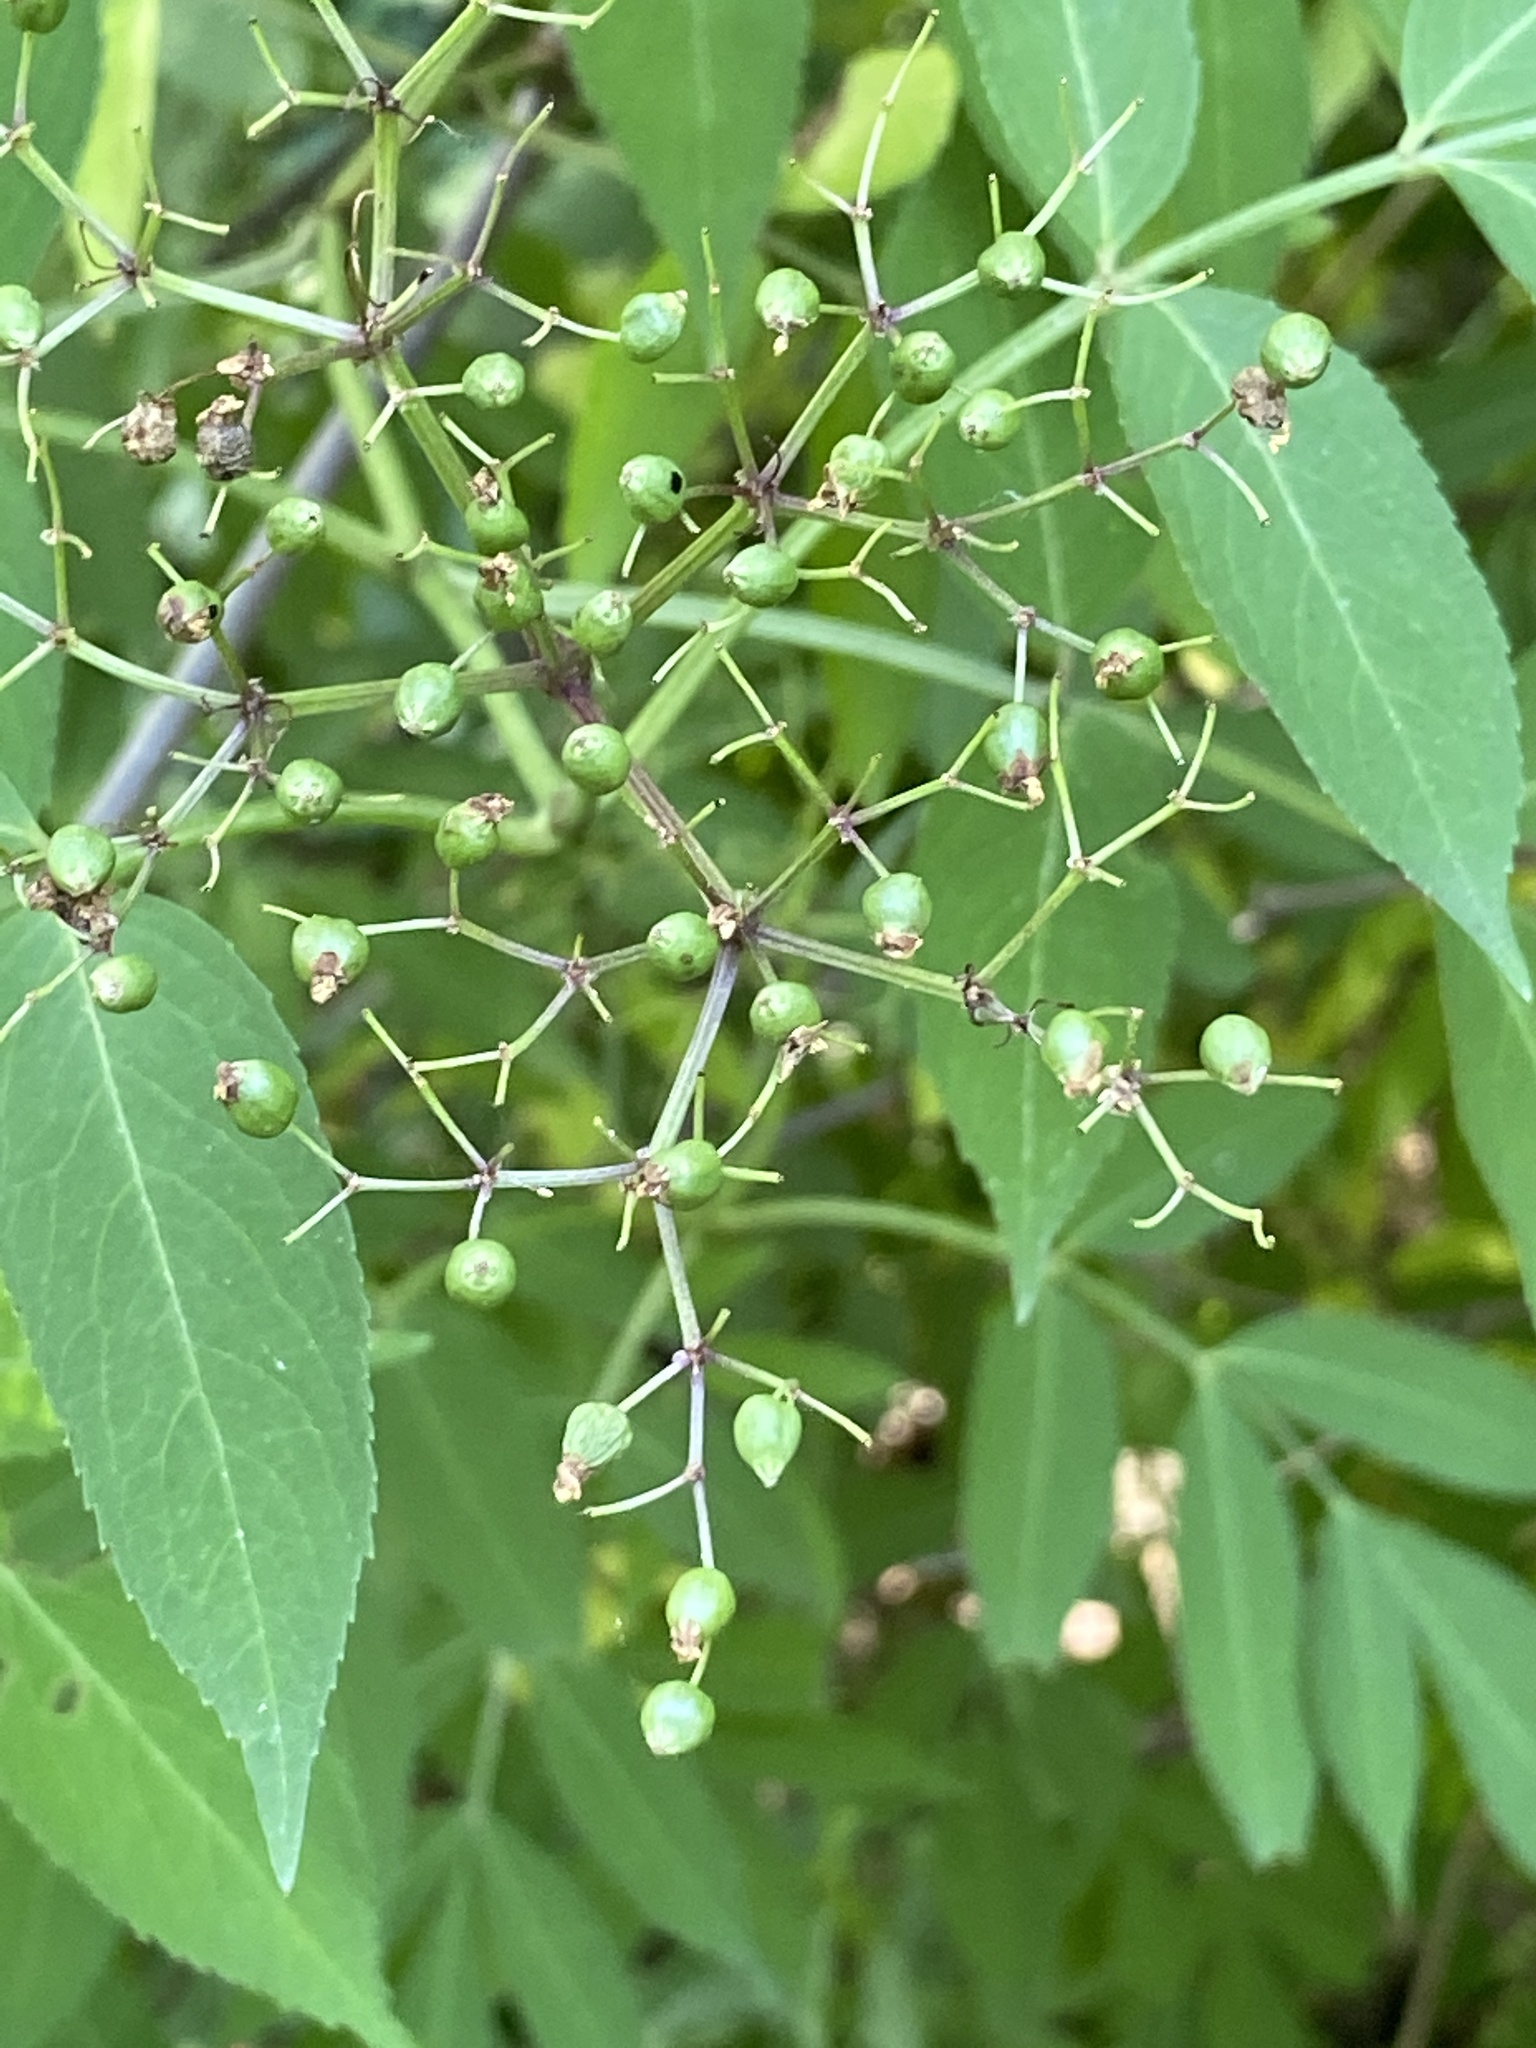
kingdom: Plantae
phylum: Tracheophyta
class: Magnoliopsida
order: Dipsacales
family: Viburnaceae
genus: Sambucus
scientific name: Sambucus canadensis
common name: American elder
